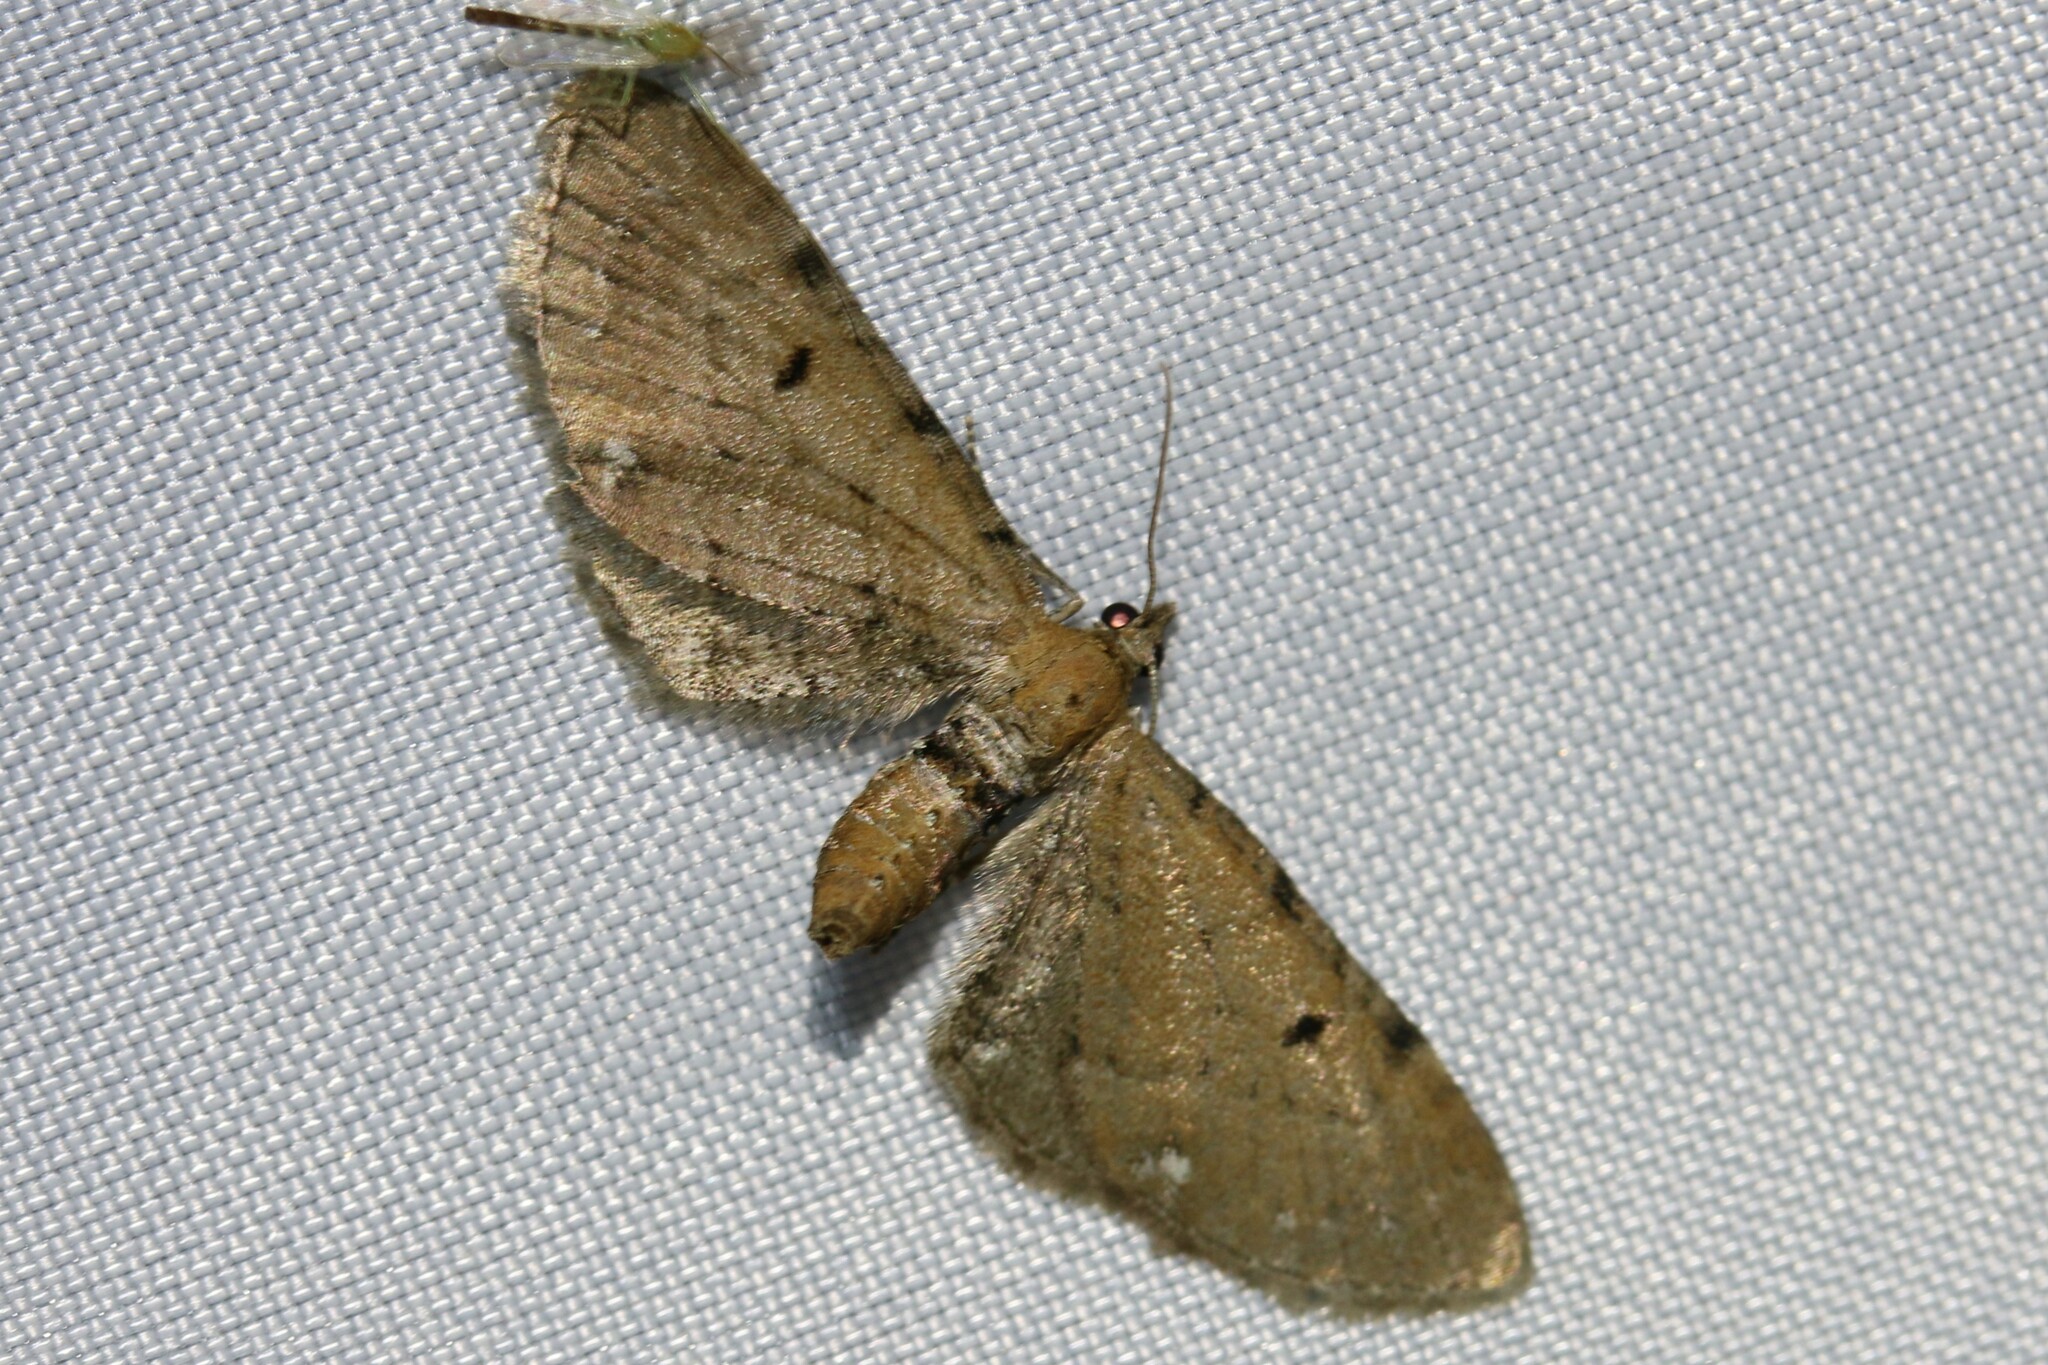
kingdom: Animalia
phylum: Arthropoda
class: Insecta
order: Lepidoptera
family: Geometridae
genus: Eupithecia
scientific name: Eupithecia absinthiata
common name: Wormwood pug
